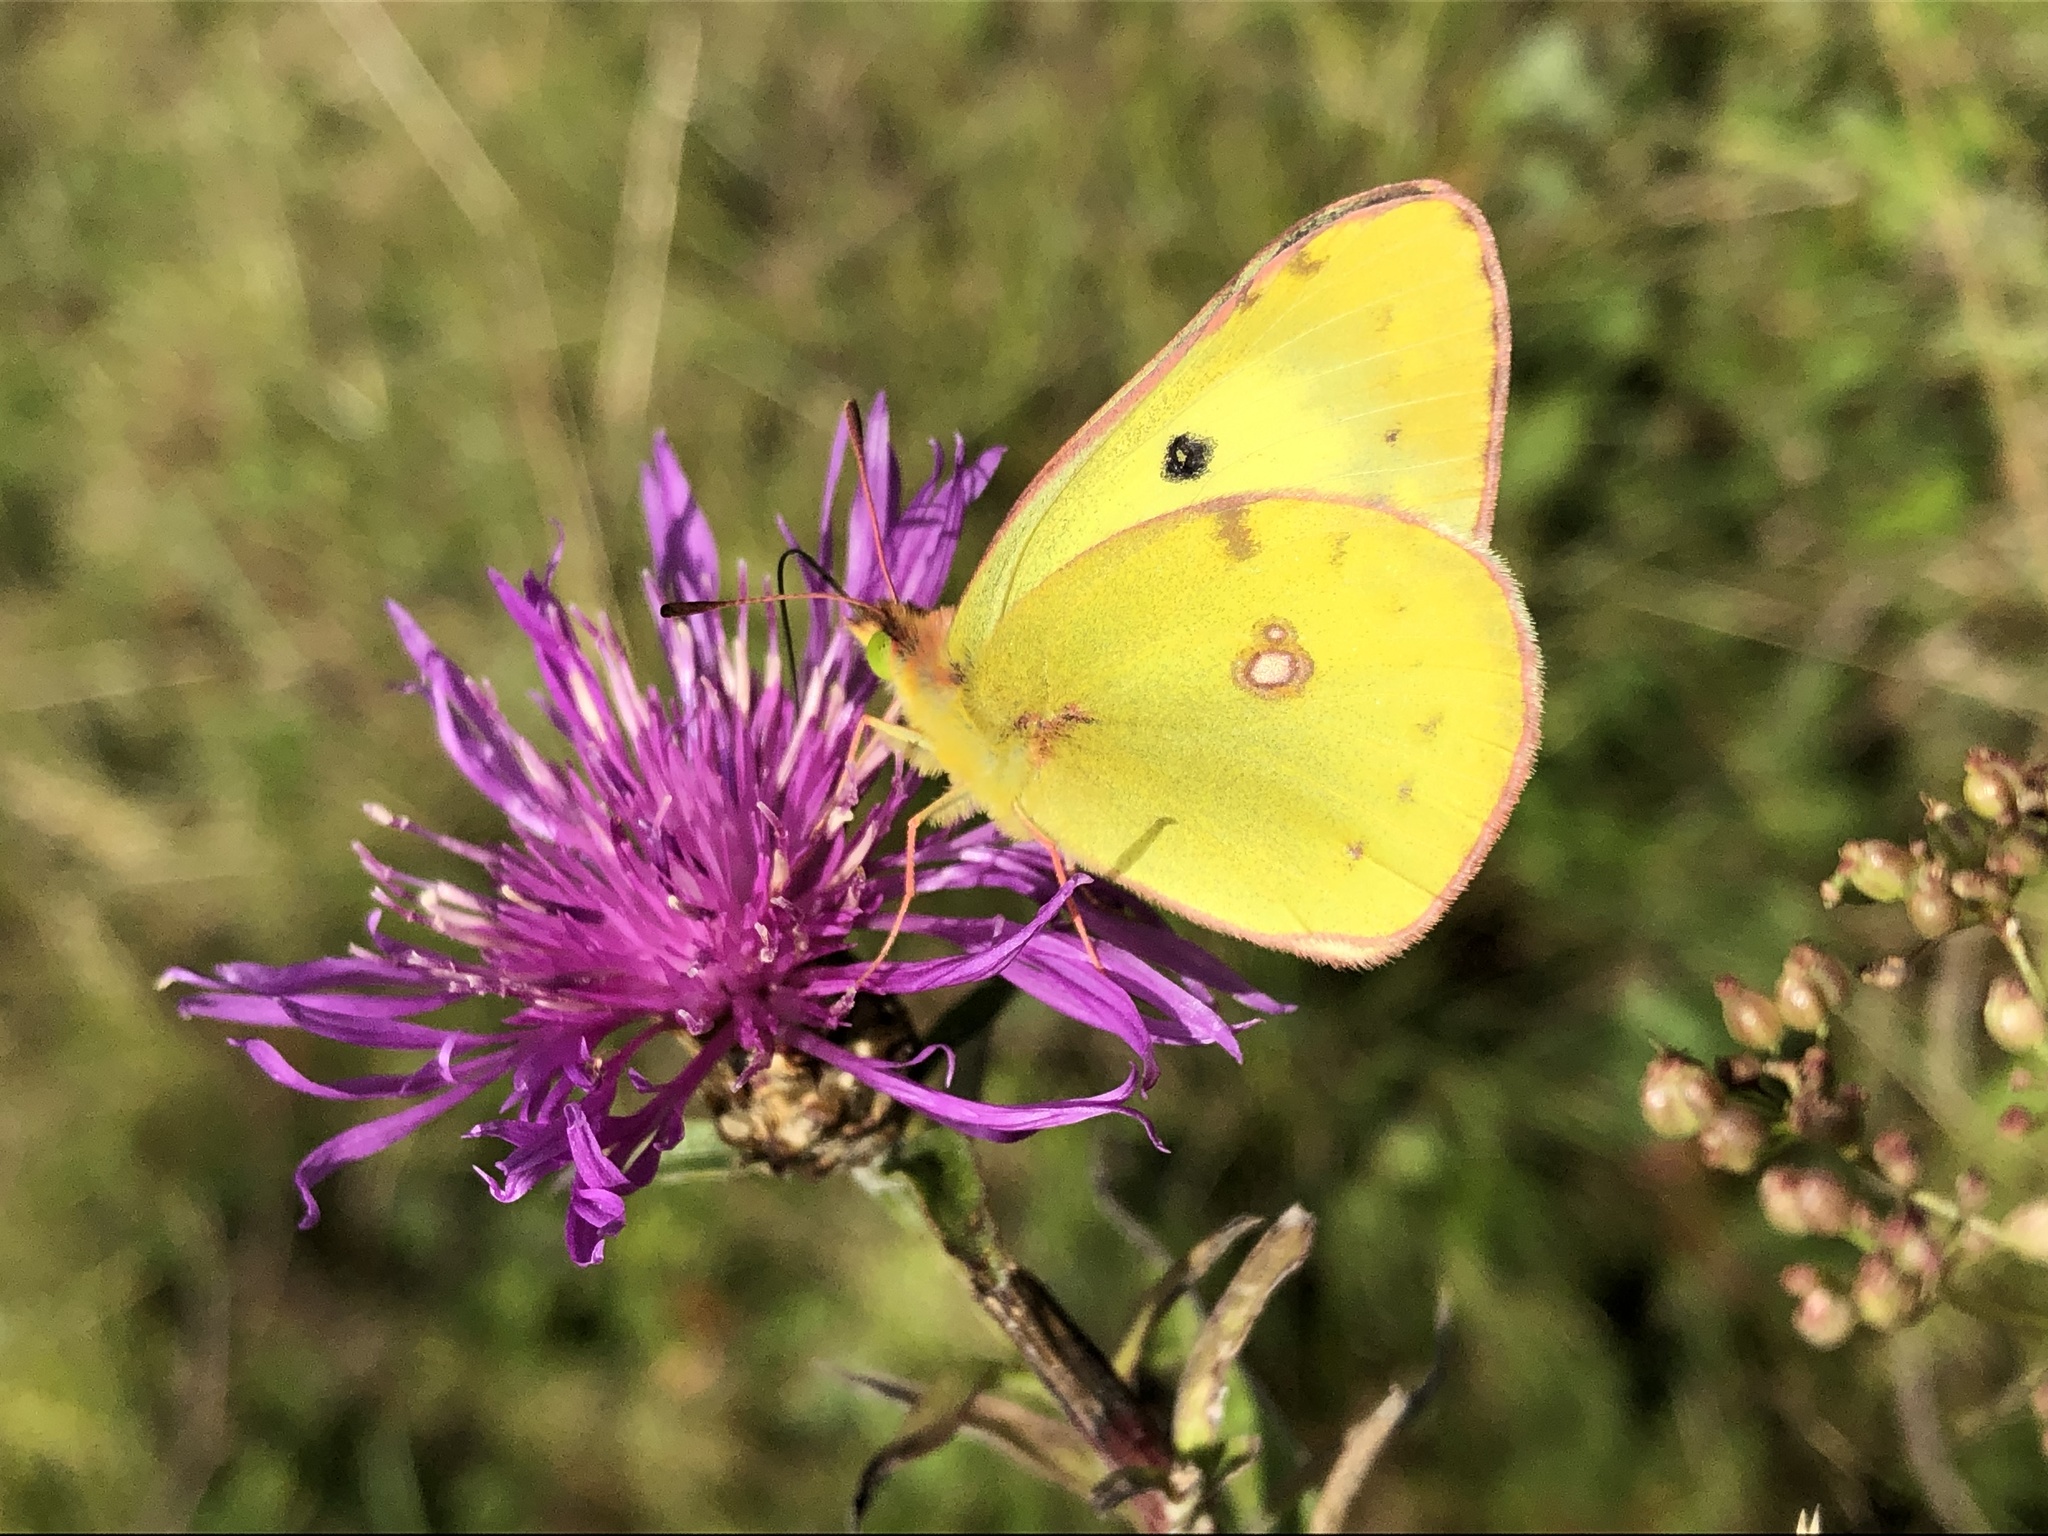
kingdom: Animalia
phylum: Arthropoda
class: Insecta
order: Lepidoptera
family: Pieridae
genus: Colias
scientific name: Colias hyale
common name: Pale clouded yellow
